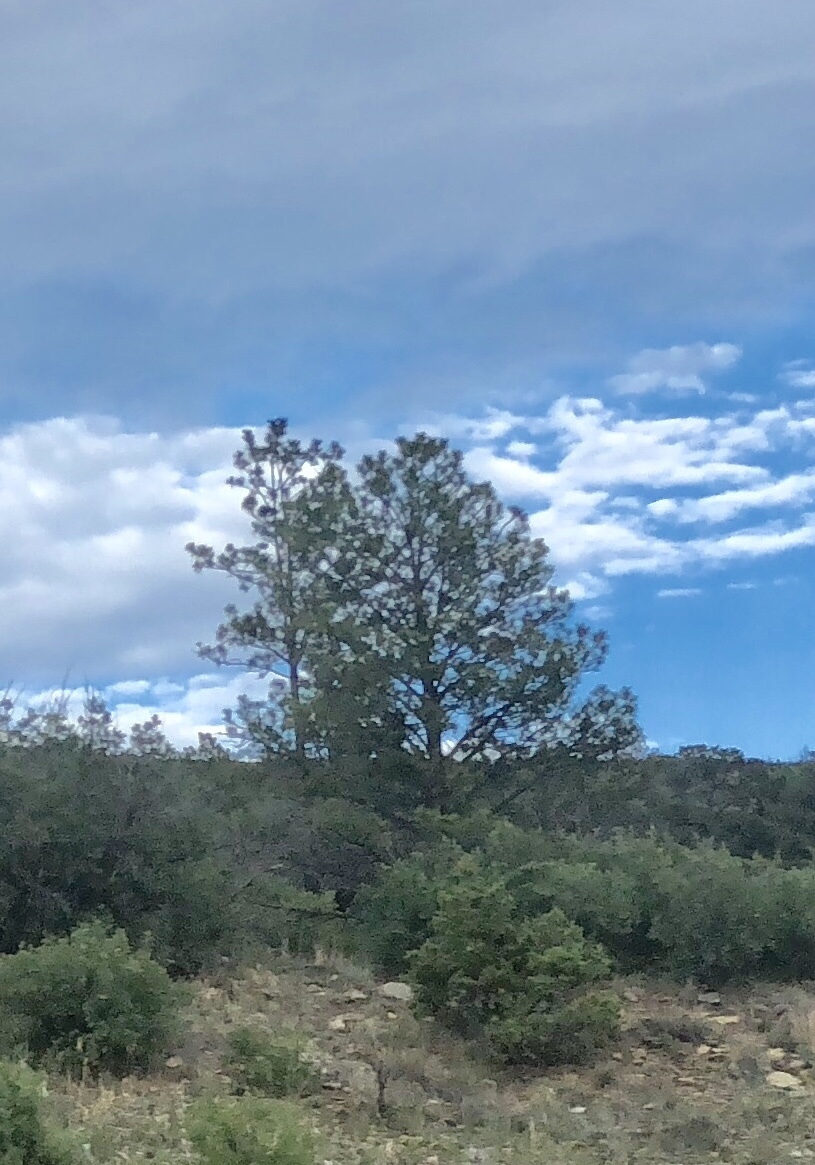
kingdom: Plantae
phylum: Tracheophyta
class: Pinopsida
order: Pinales
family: Pinaceae
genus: Pinus
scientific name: Pinus ponderosa
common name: Western yellow-pine
